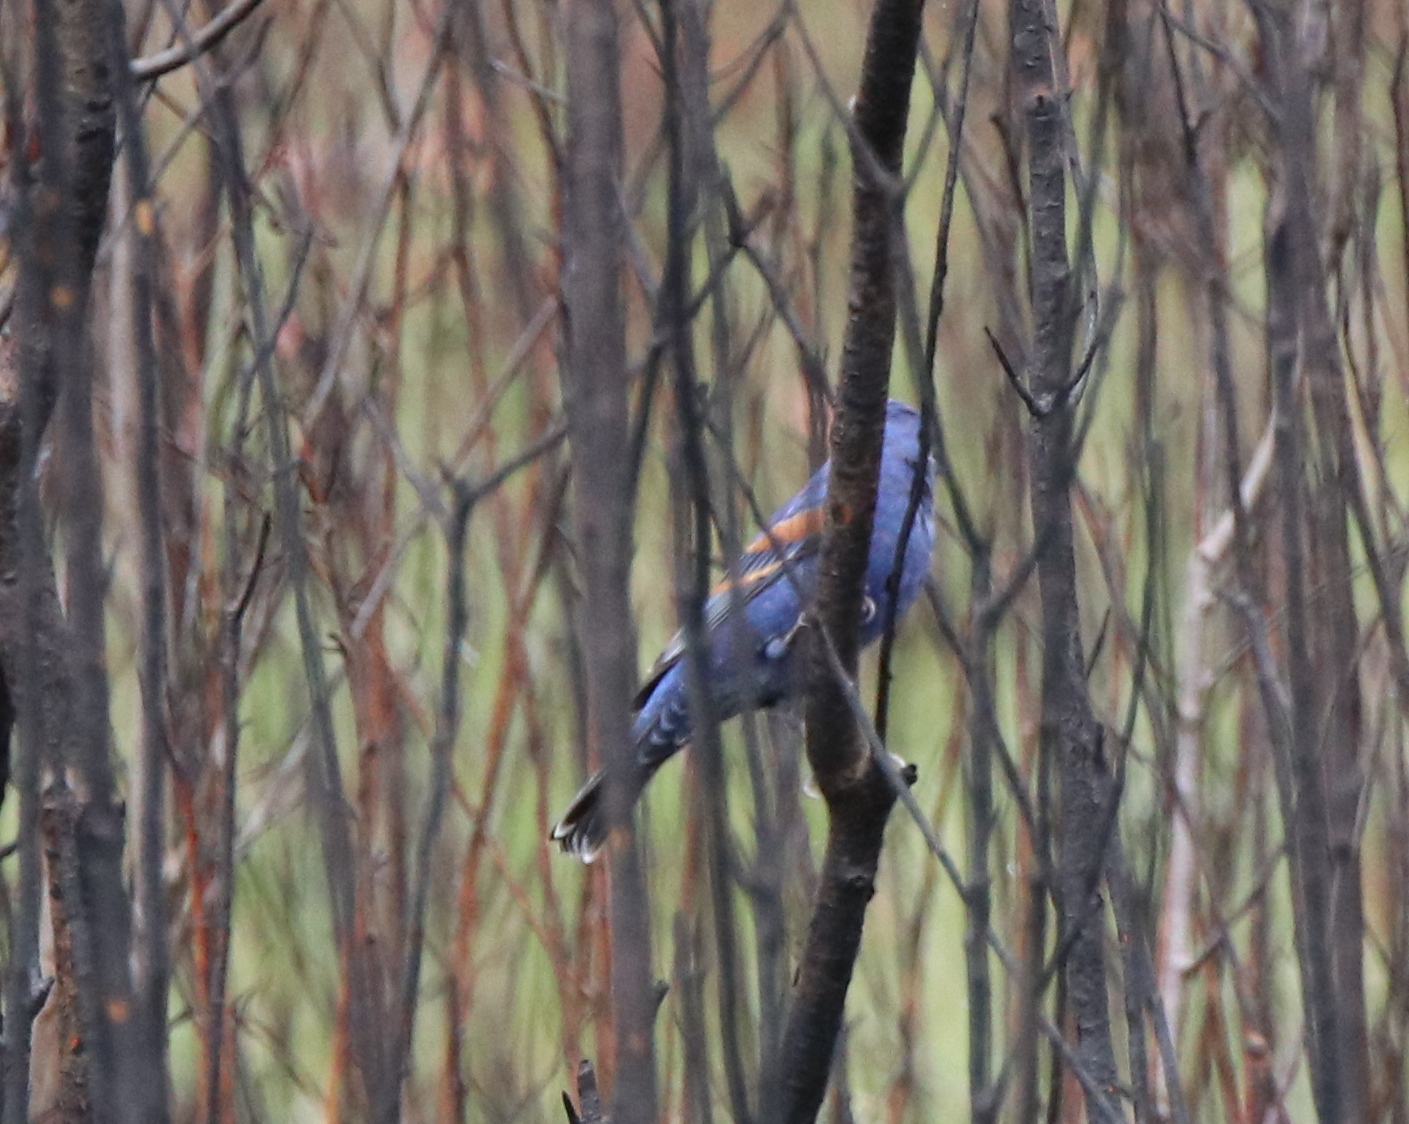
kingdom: Animalia
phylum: Chordata
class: Aves
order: Passeriformes
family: Cardinalidae
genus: Passerina
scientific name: Passerina caerulea
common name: Blue grosbeak
